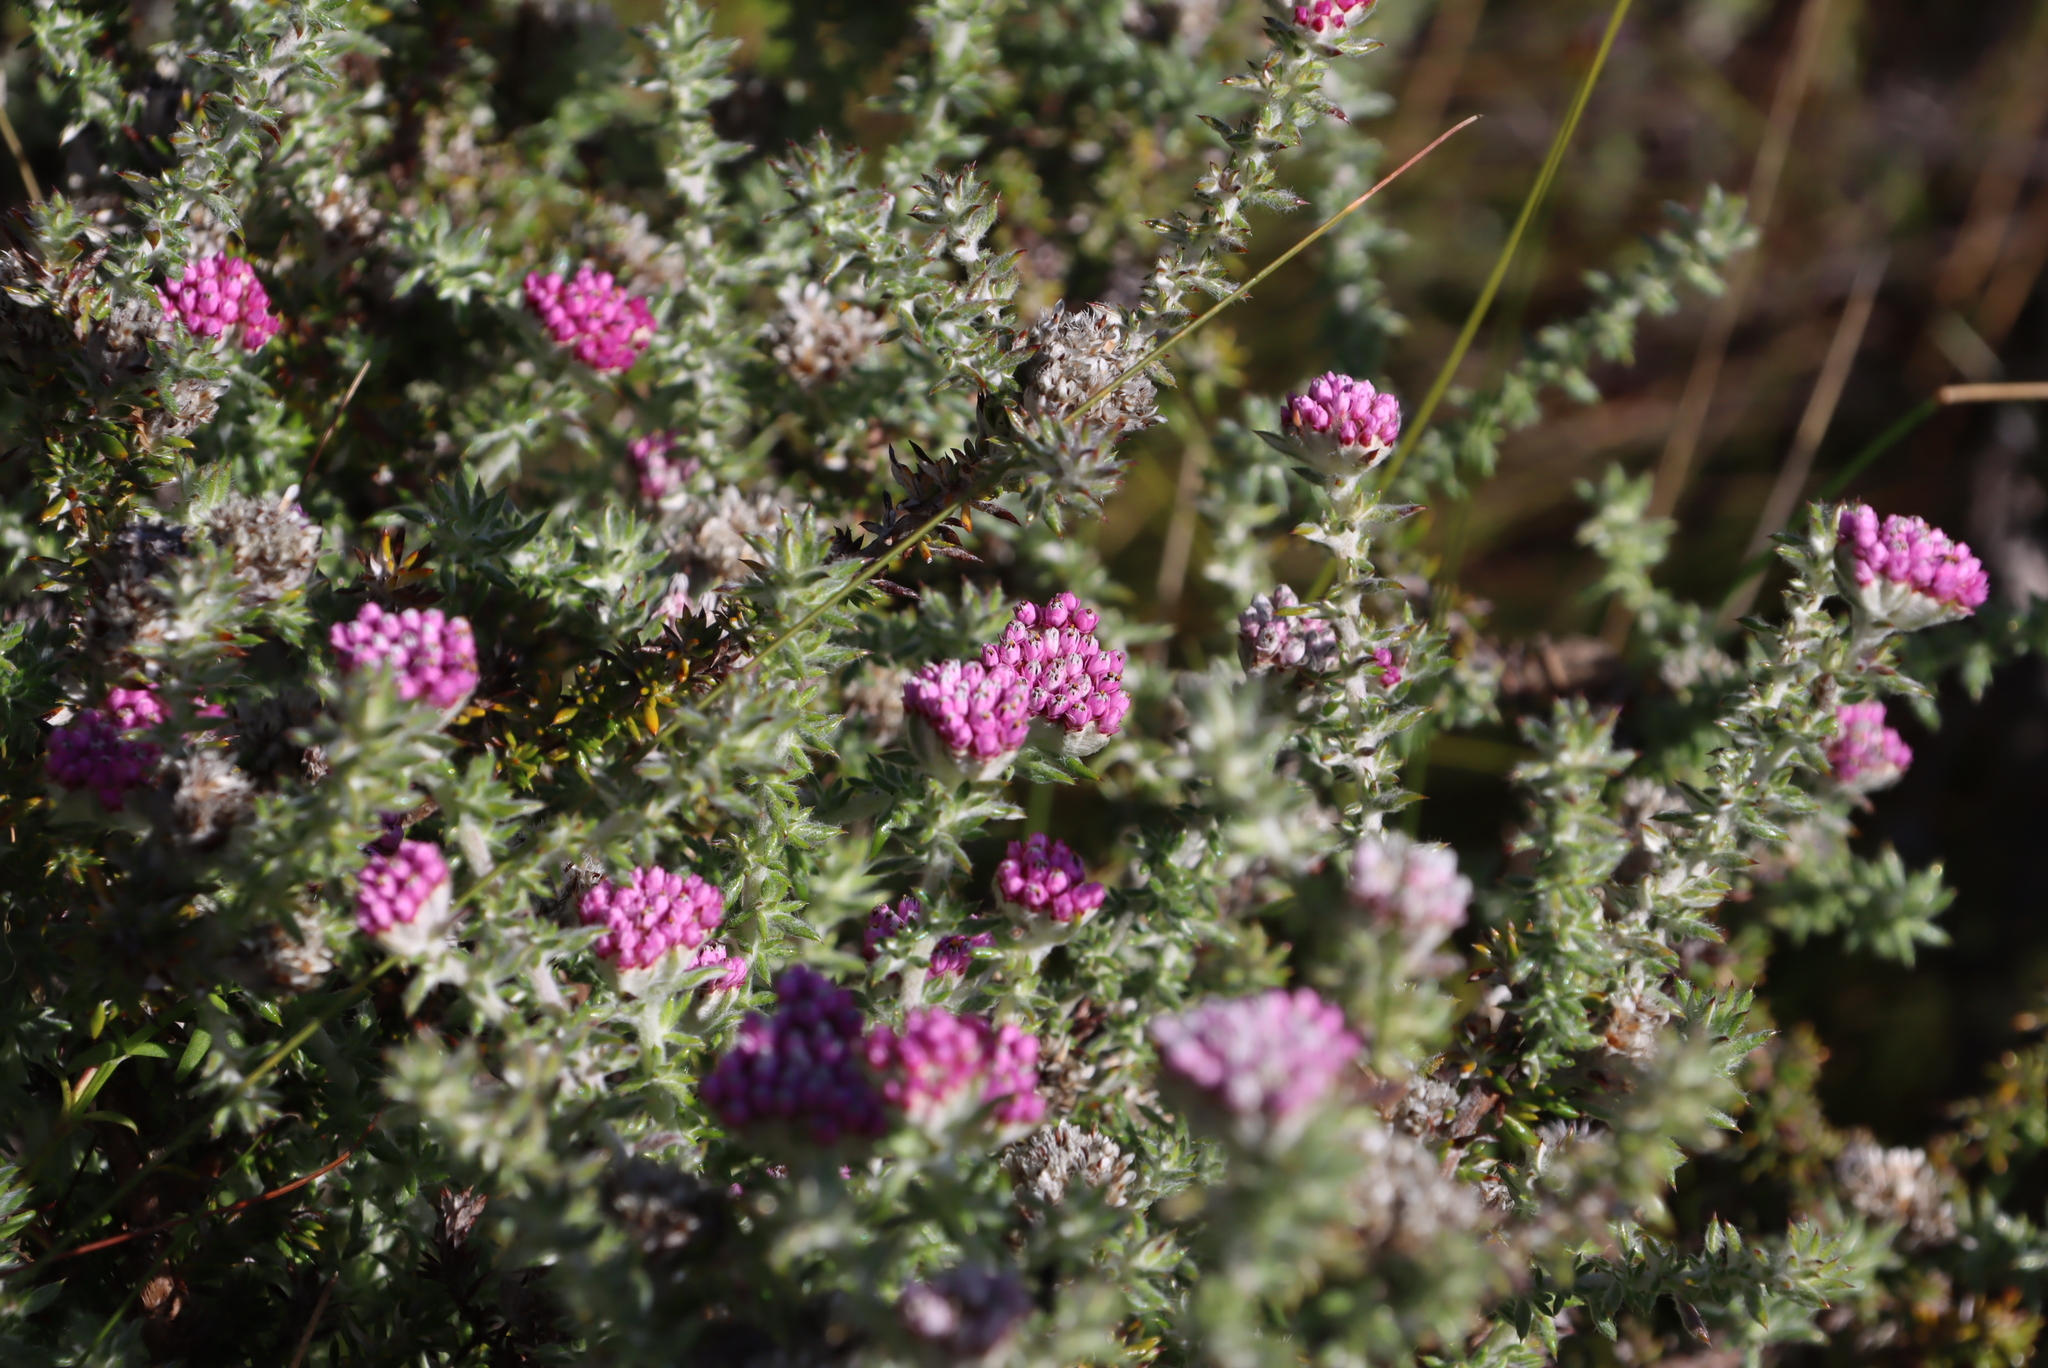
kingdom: Plantae
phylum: Tracheophyta
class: Magnoliopsida
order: Asterales
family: Asteraceae
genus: Metalasia
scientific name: Metalasia cephalotes
